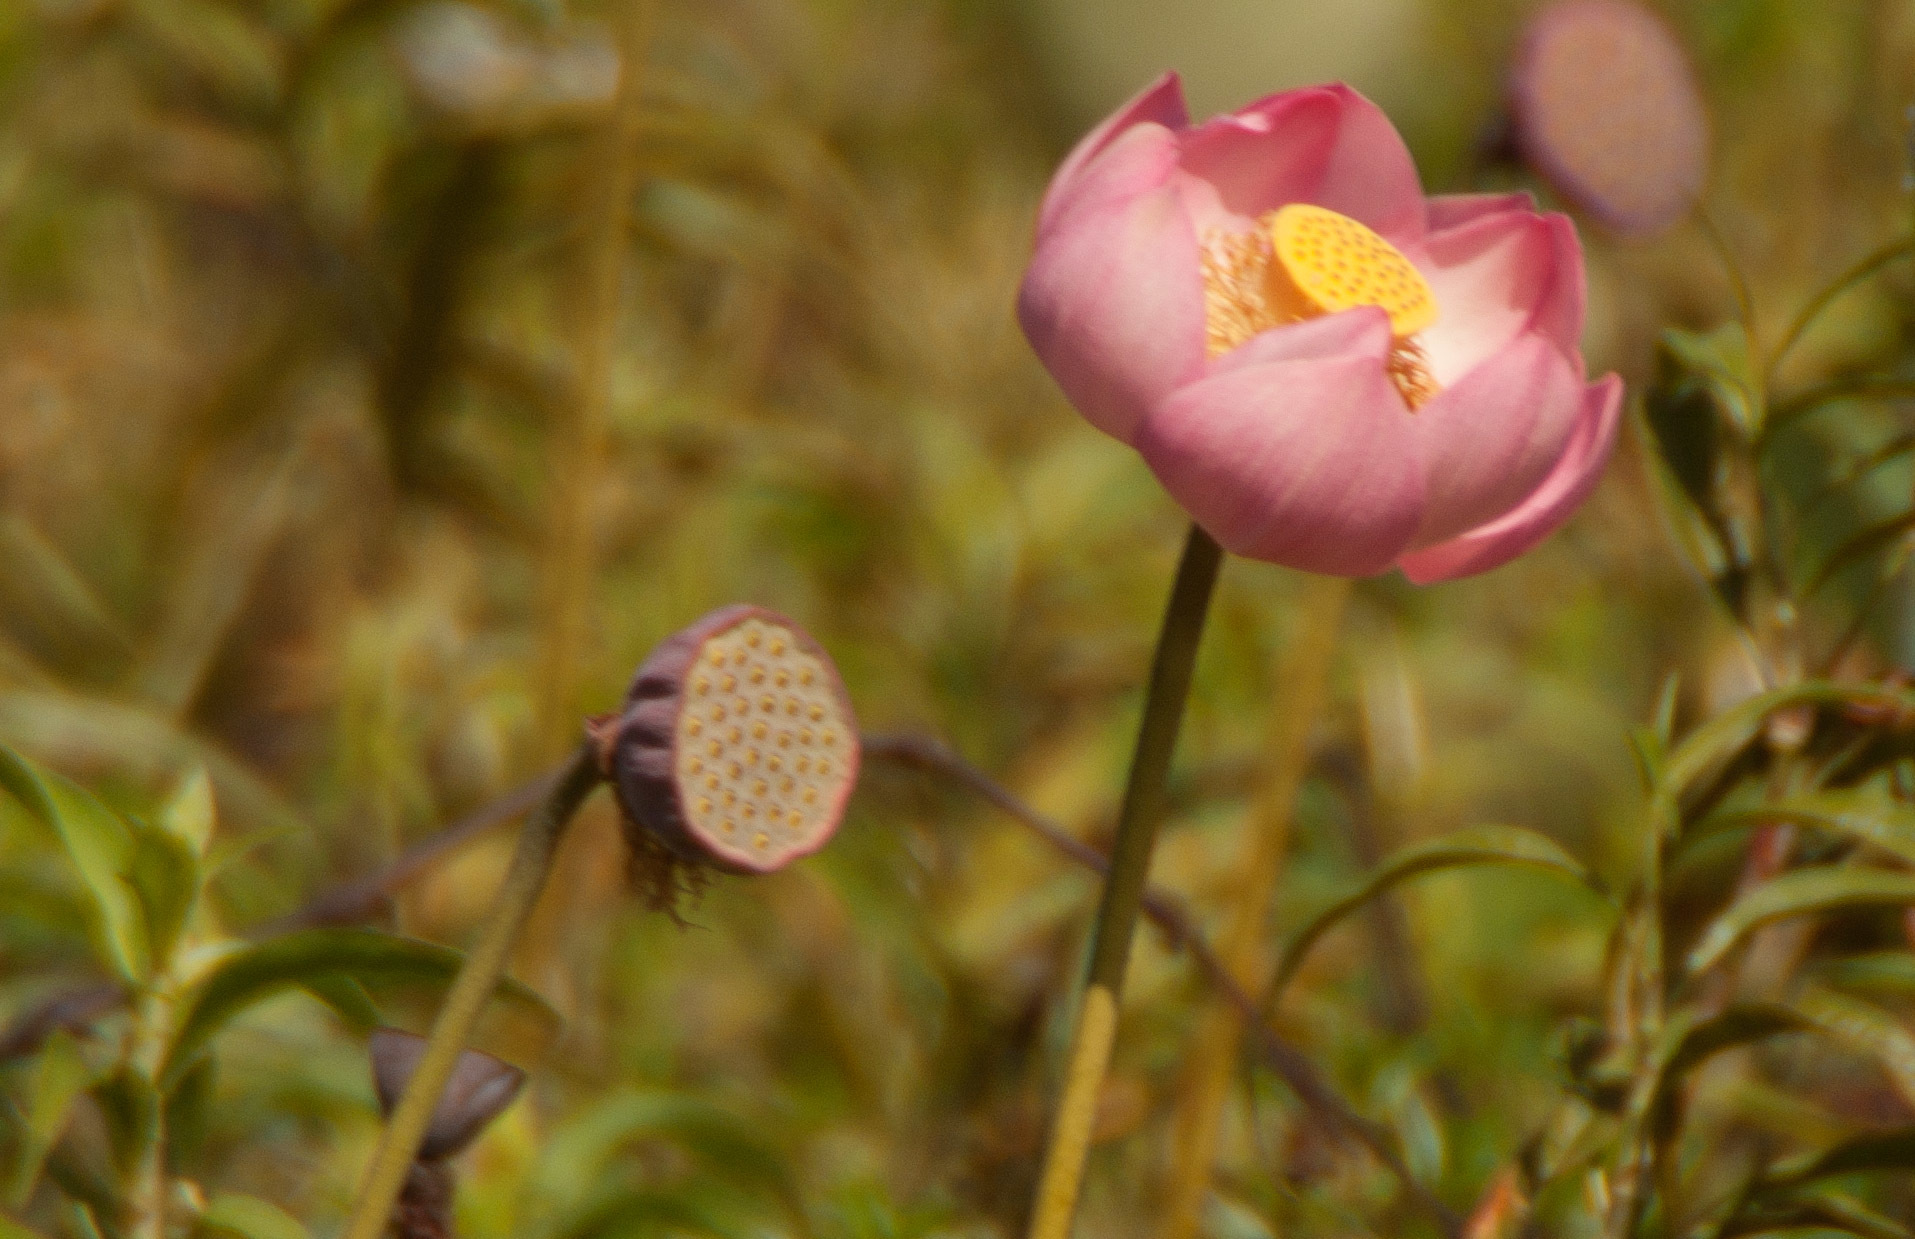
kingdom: Plantae
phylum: Tracheophyta
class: Magnoliopsida
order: Proteales
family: Nelumbonaceae
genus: Nelumbo
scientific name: Nelumbo nucifera
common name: Sacred lotus
